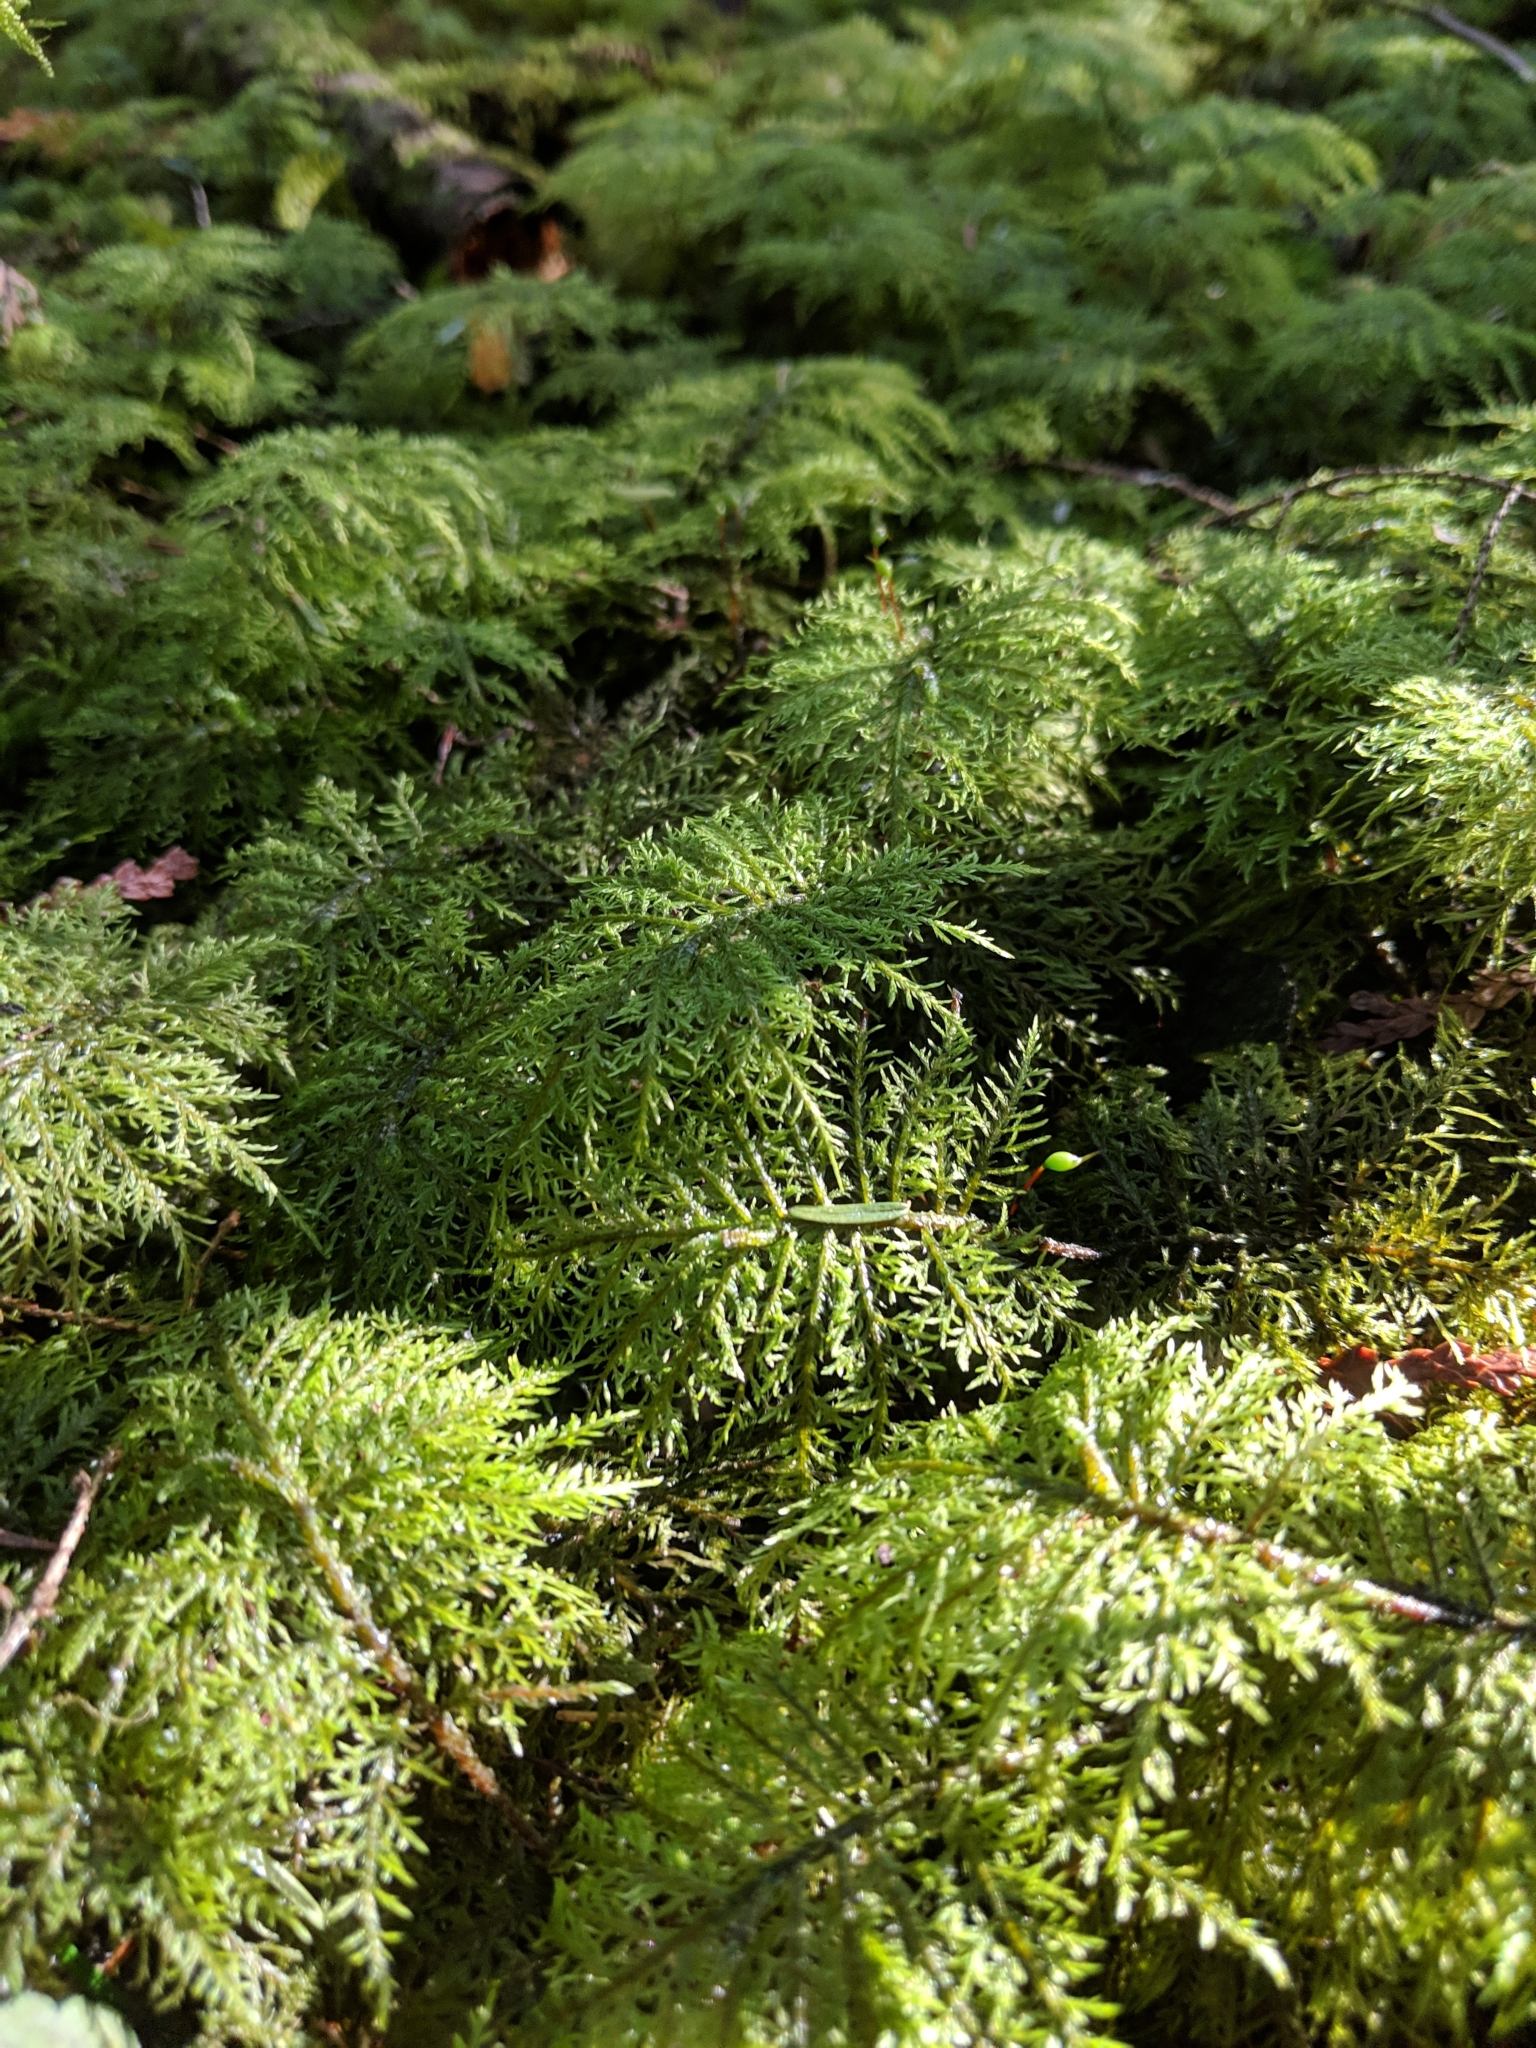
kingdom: Plantae
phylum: Bryophyta
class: Bryopsida
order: Hypnales
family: Hylocomiaceae
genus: Hylocomium
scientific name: Hylocomium splendens
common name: Stairstep moss
